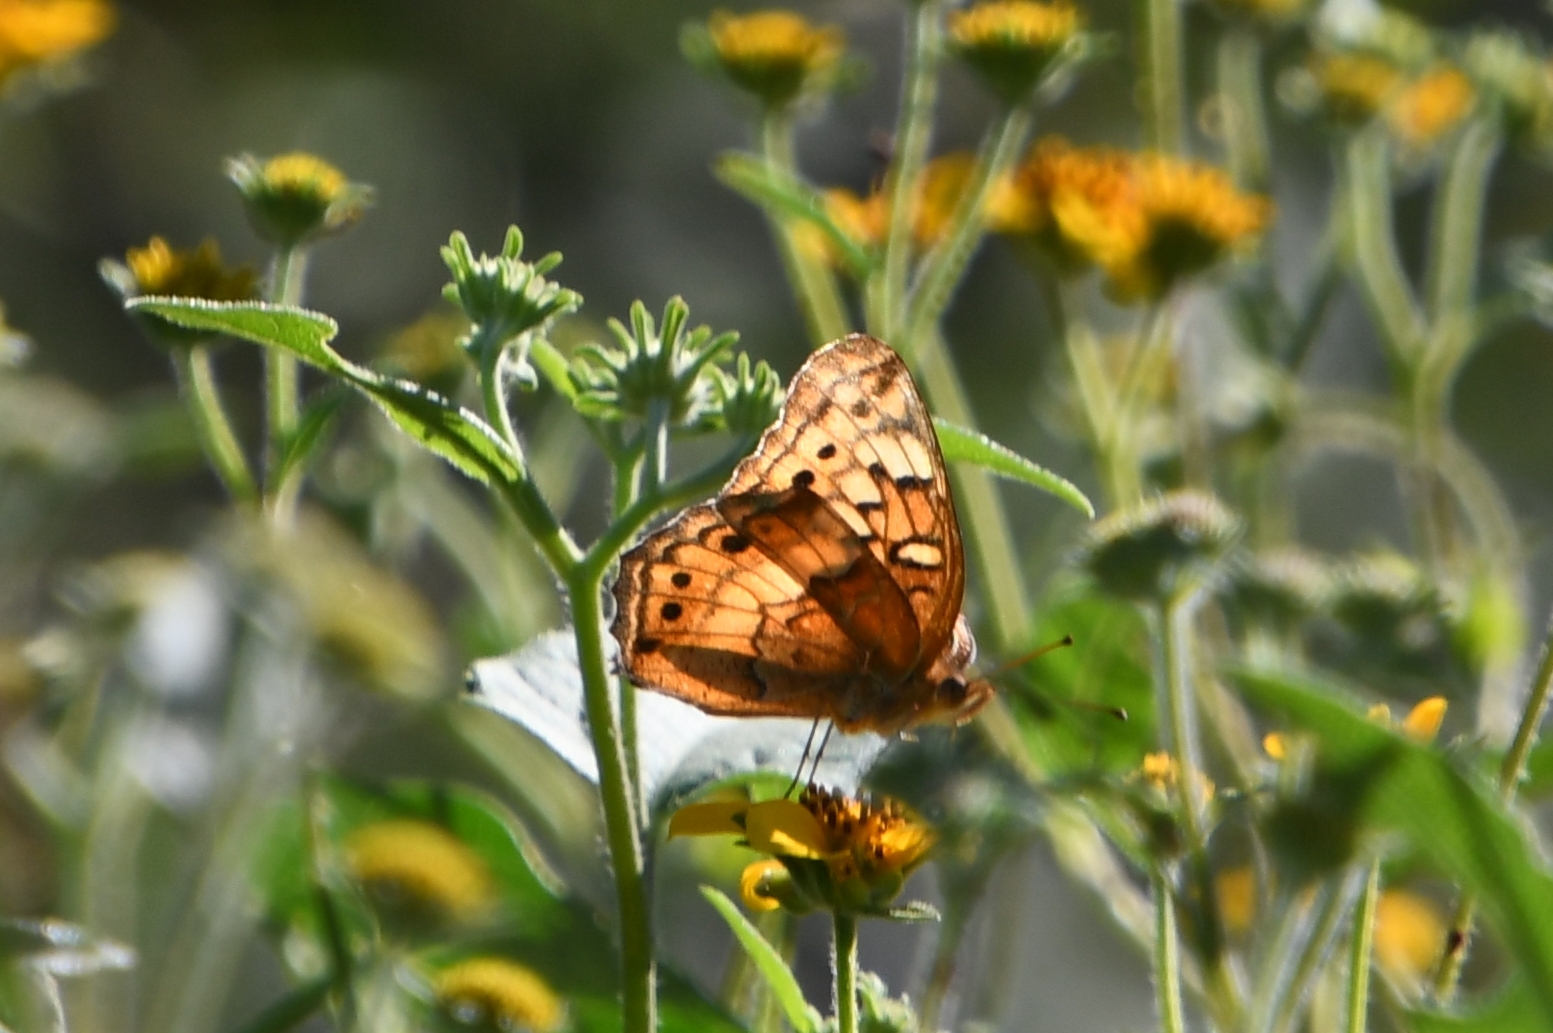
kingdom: Animalia
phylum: Arthropoda
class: Insecta
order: Lepidoptera
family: Nymphalidae
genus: Euptoieta
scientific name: Euptoieta claudia
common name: Variegated fritillary
